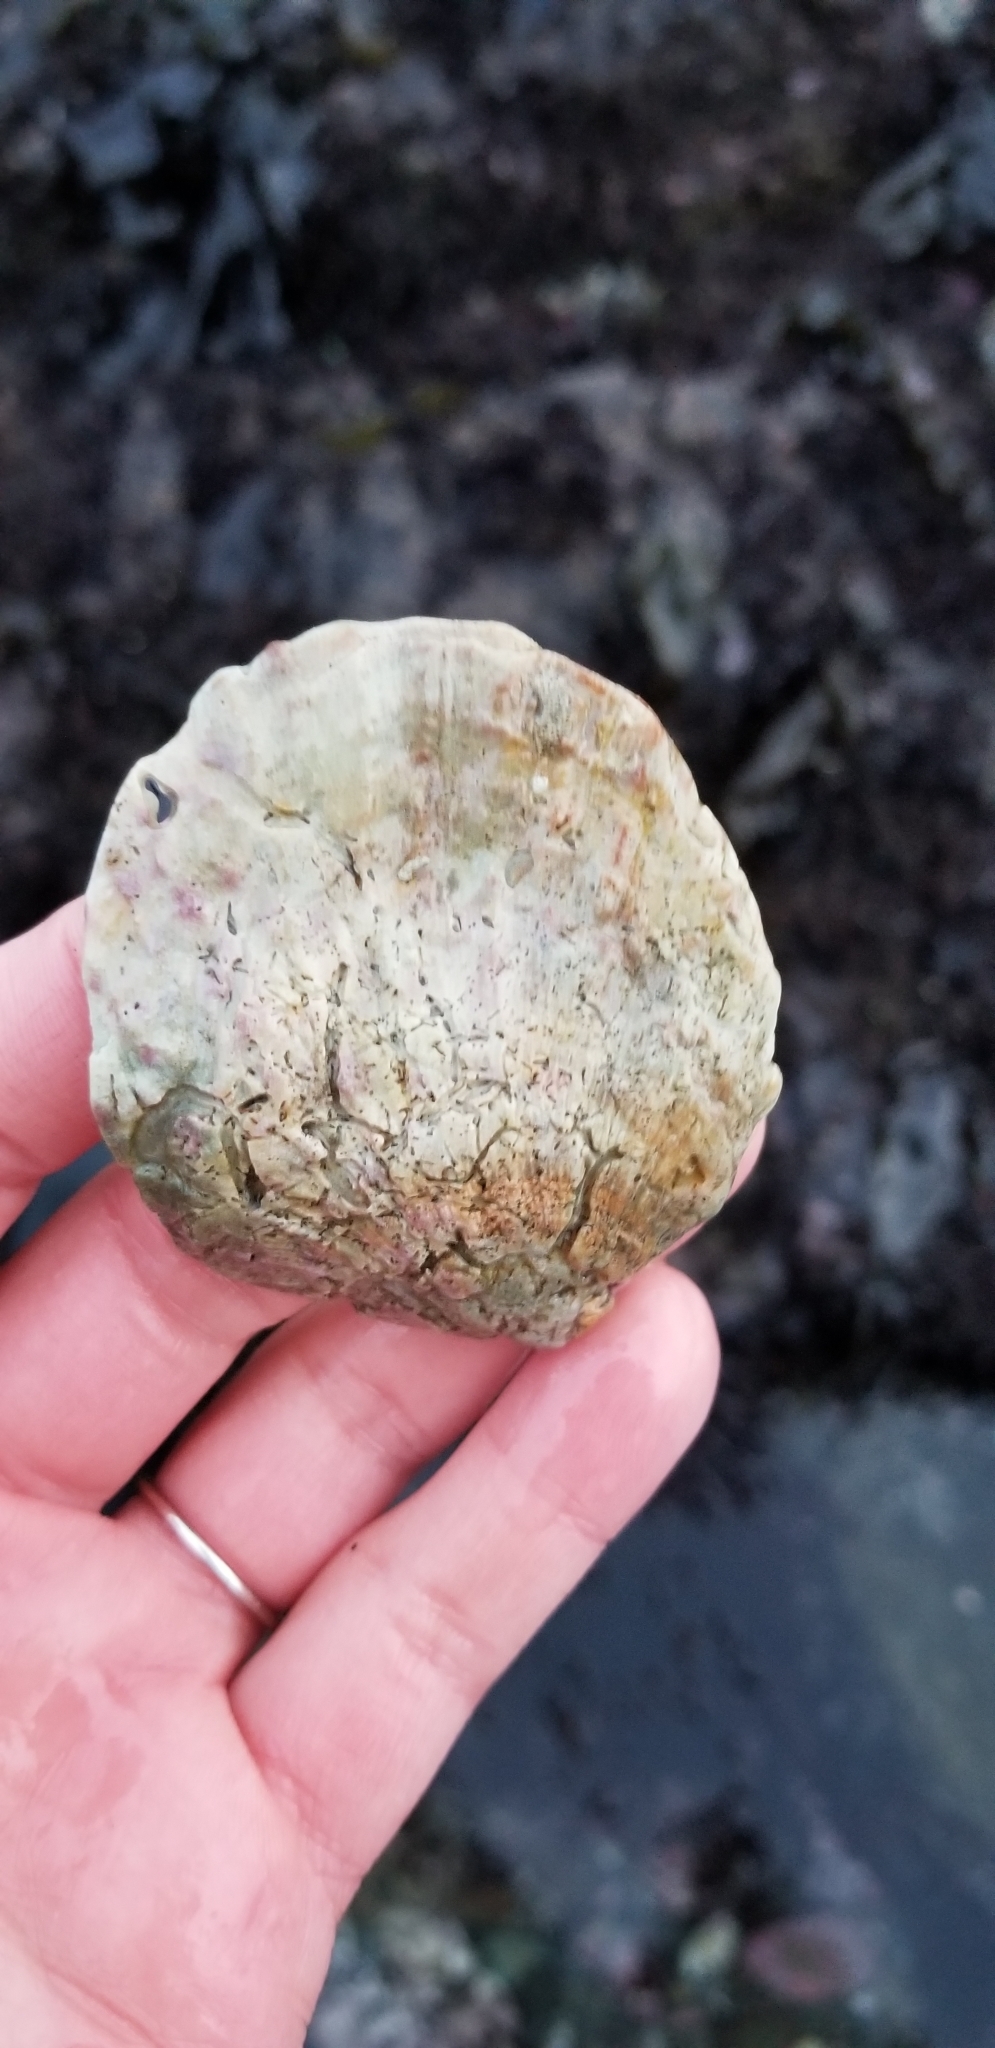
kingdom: Animalia
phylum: Mollusca
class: Bivalvia
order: Pectinida
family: Pectinidae
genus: Crassadoma
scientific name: Crassadoma gigantea
